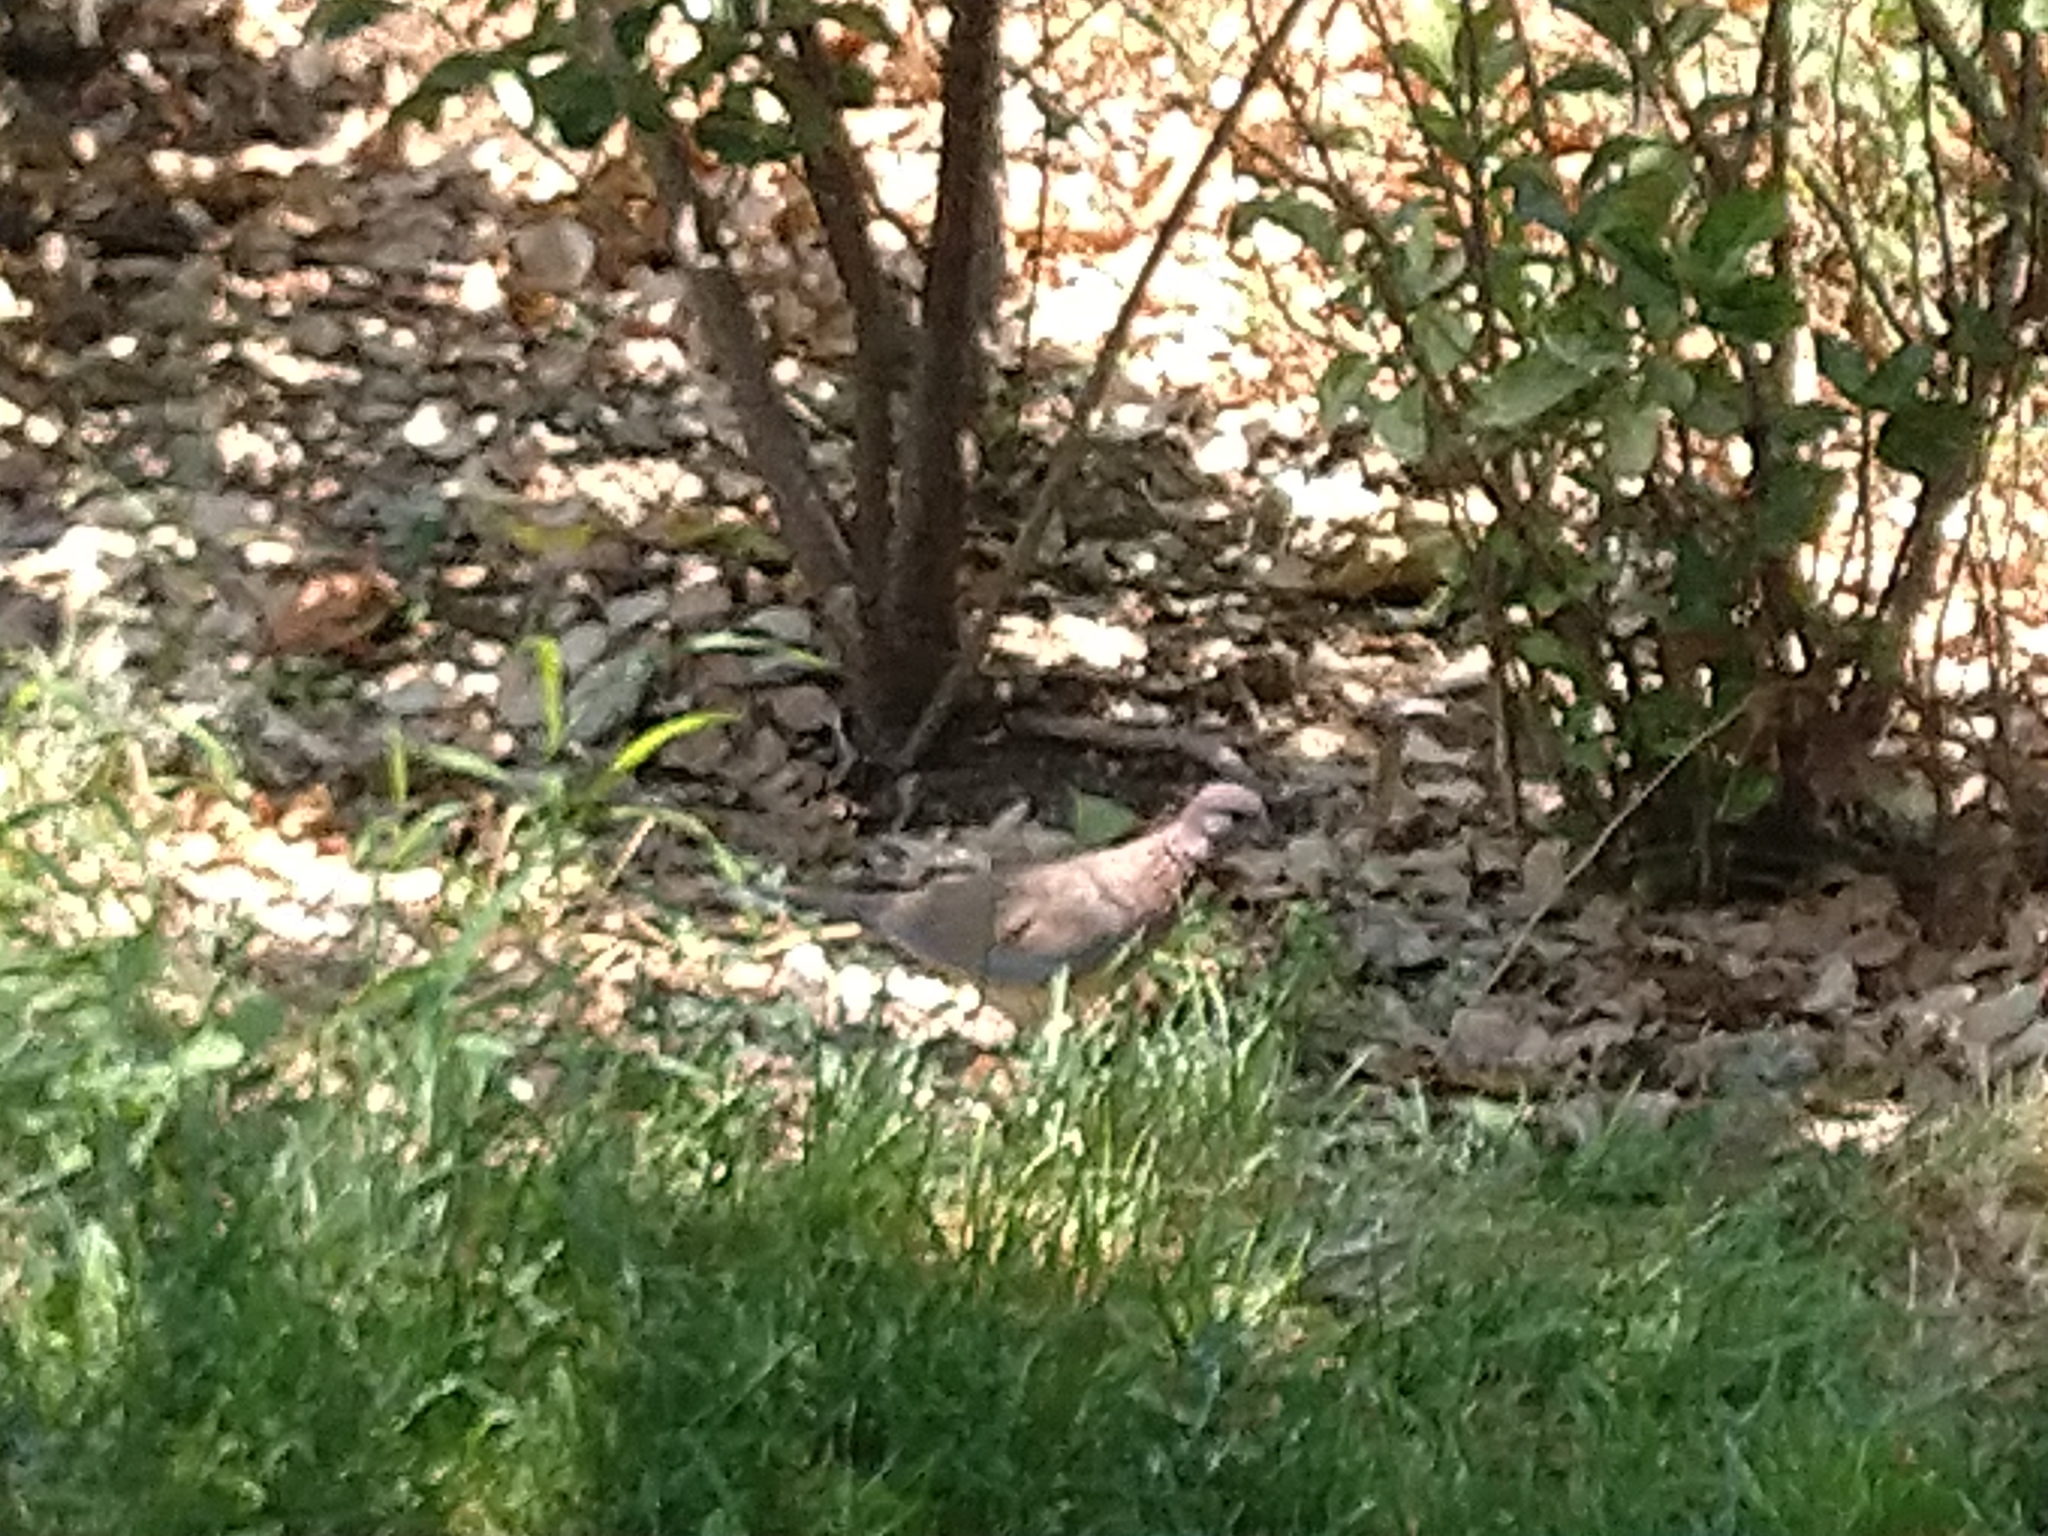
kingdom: Animalia
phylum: Chordata
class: Aves
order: Columbiformes
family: Columbidae
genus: Spilopelia
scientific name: Spilopelia senegalensis
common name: Laughing dove
